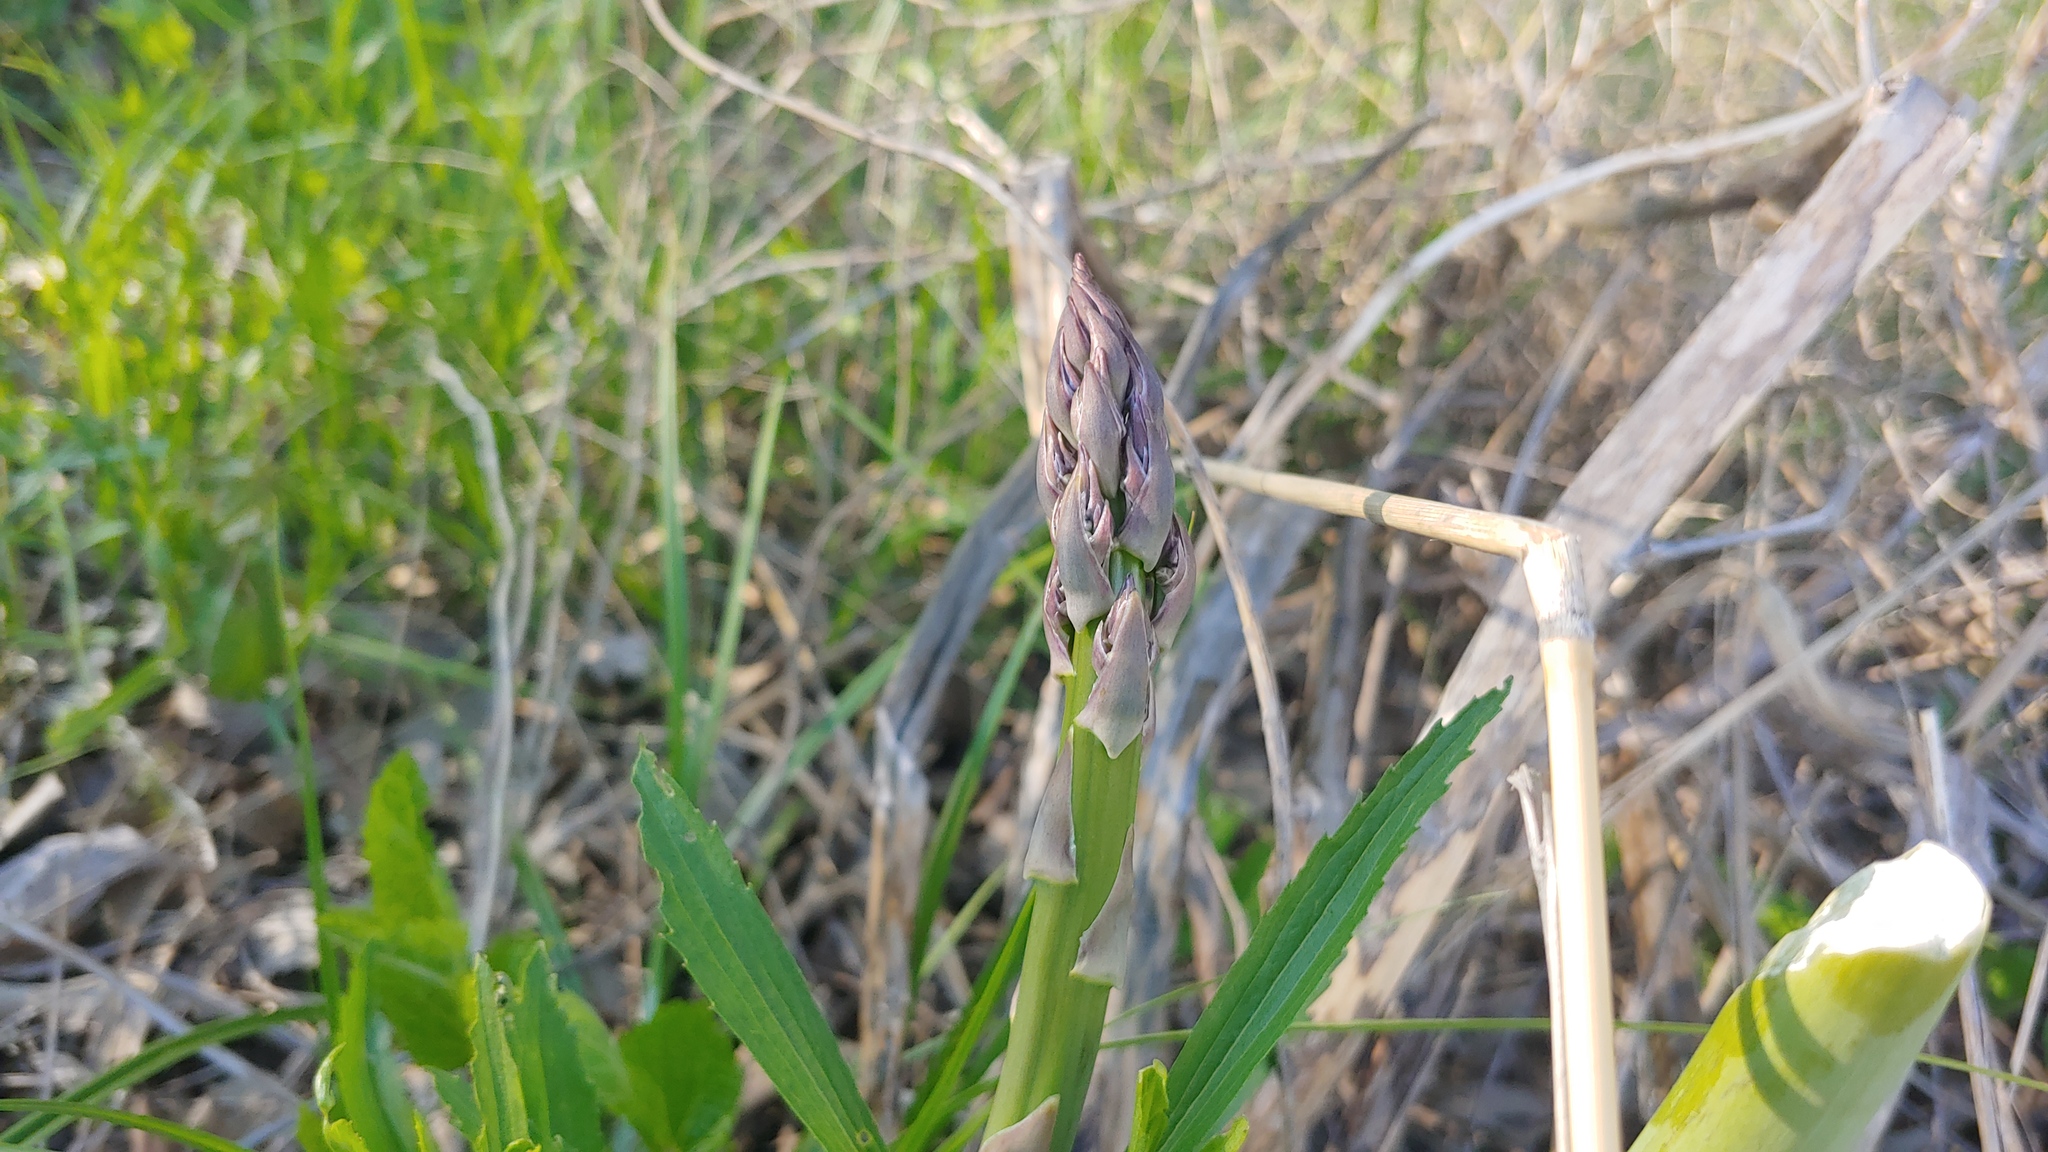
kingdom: Plantae
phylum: Tracheophyta
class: Liliopsida
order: Asparagales
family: Asparagaceae
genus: Asparagus
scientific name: Asparagus officinalis
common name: Garden asparagus
